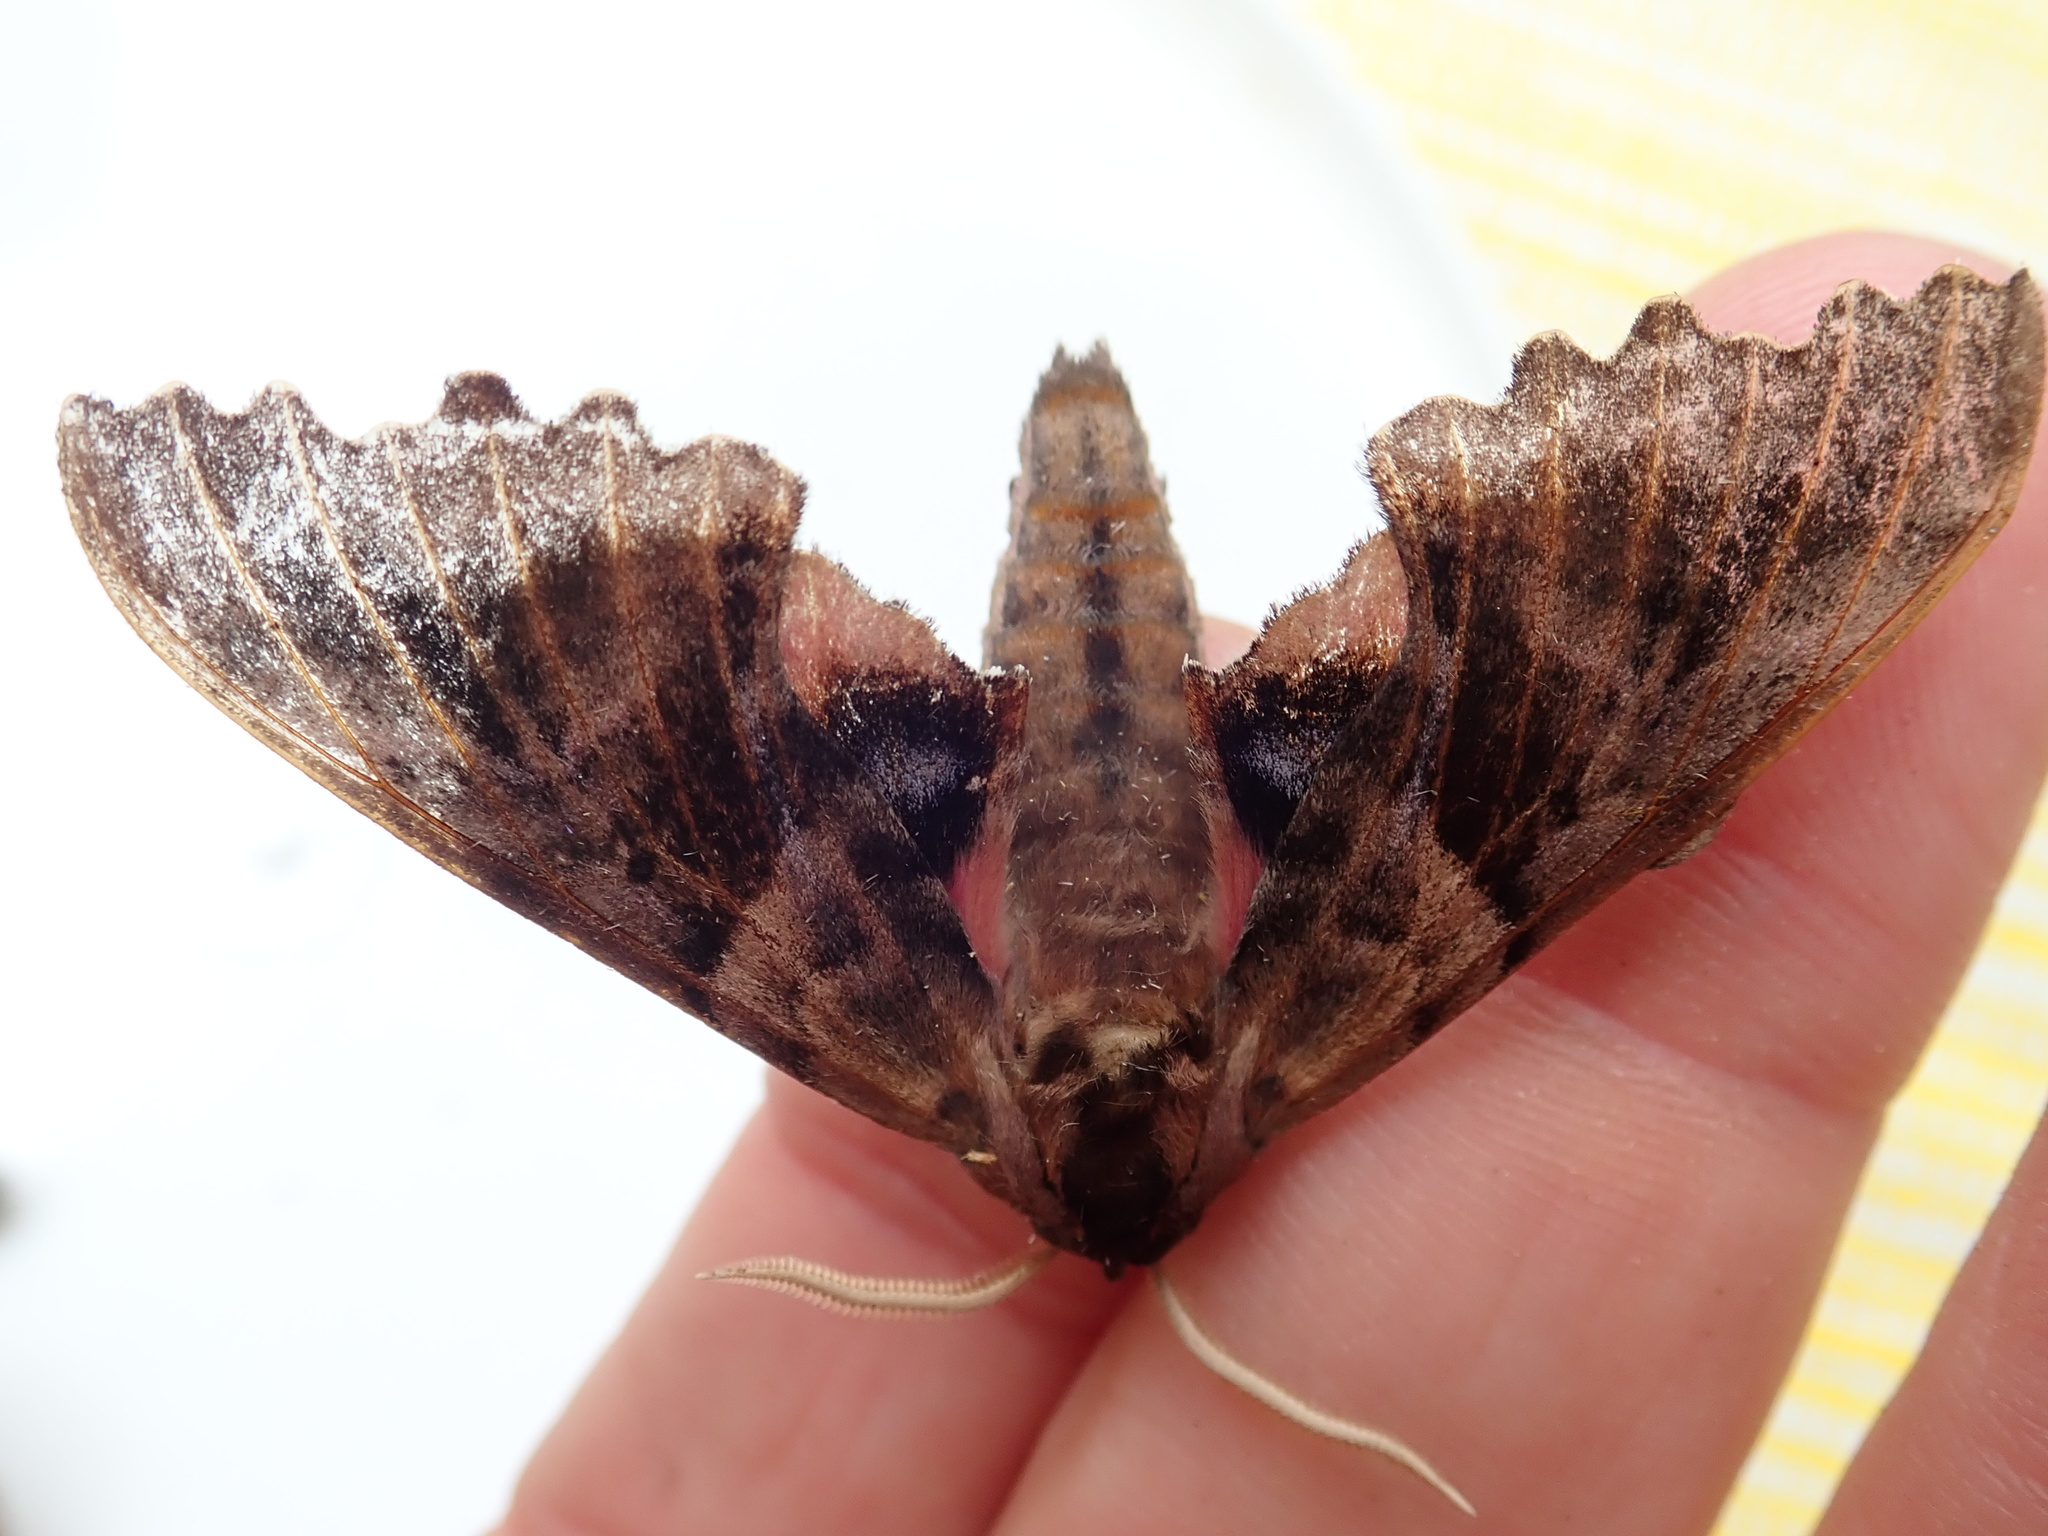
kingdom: Animalia
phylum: Arthropoda
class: Insecta
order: Lepidoptera
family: Sphingidae
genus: Paonias
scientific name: Paonias excaecata
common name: Blind-eyed sphinx
